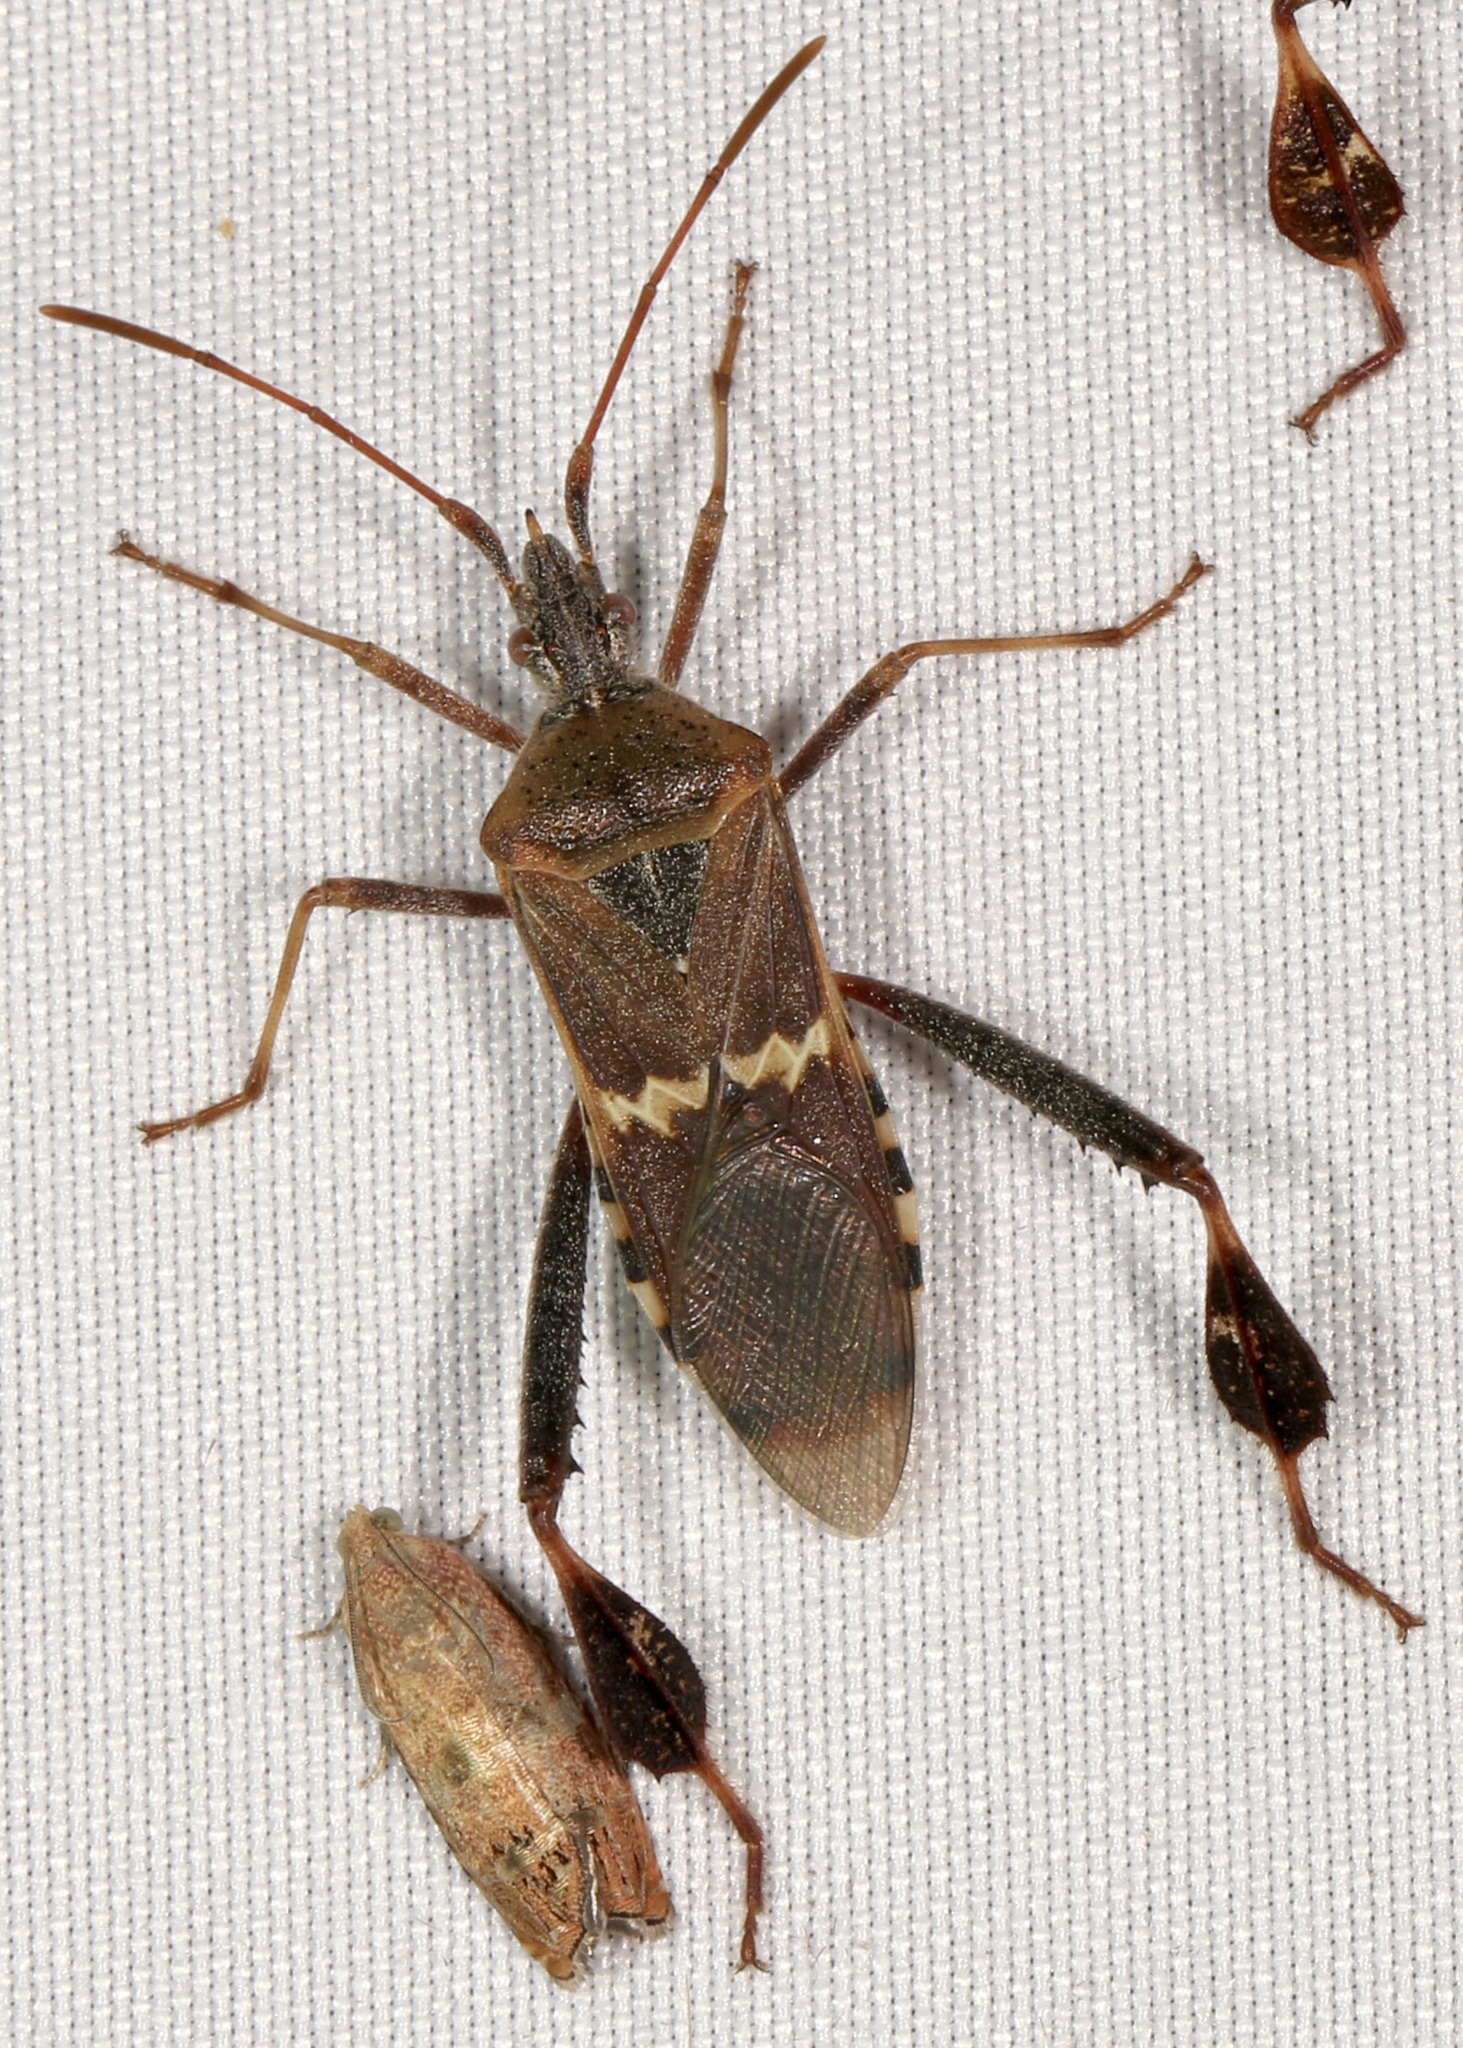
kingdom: Animalia
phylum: Arthropoda
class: Insecta
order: Hemiptera
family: Coreidae
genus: Leptoglossus
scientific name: Leptoglossus clypealis
